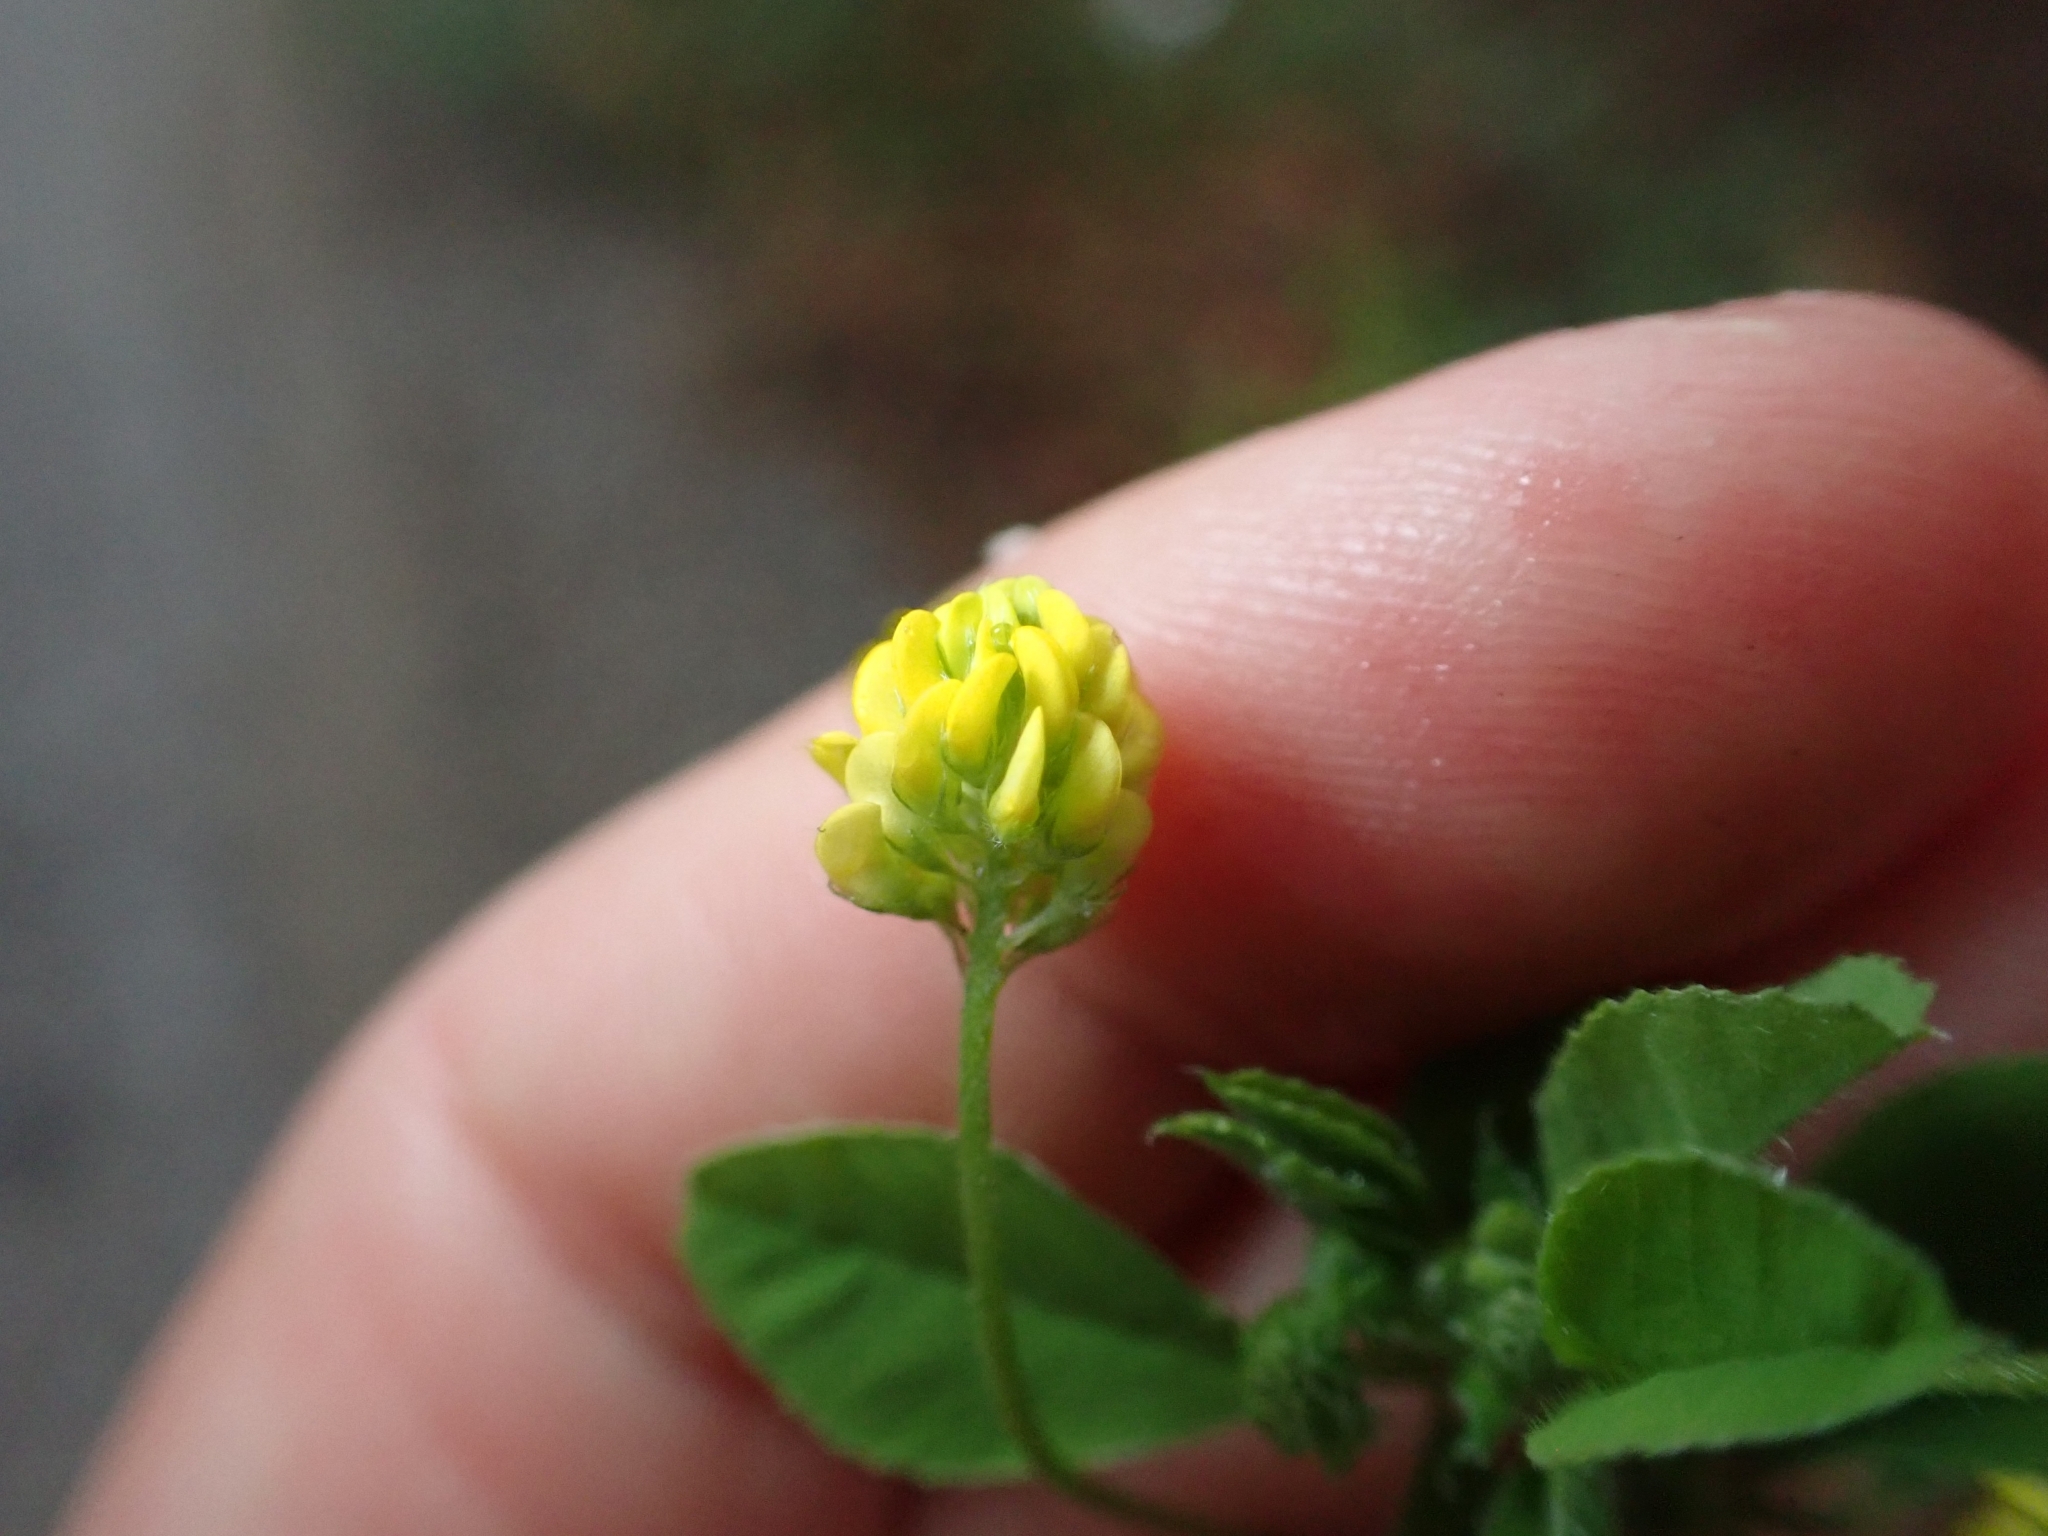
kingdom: Plantae
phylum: Tracheophyta
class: Magnoliopsida
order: Fabales
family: Fabaceae
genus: Medicago
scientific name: Medicago lupulina
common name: Black medick
